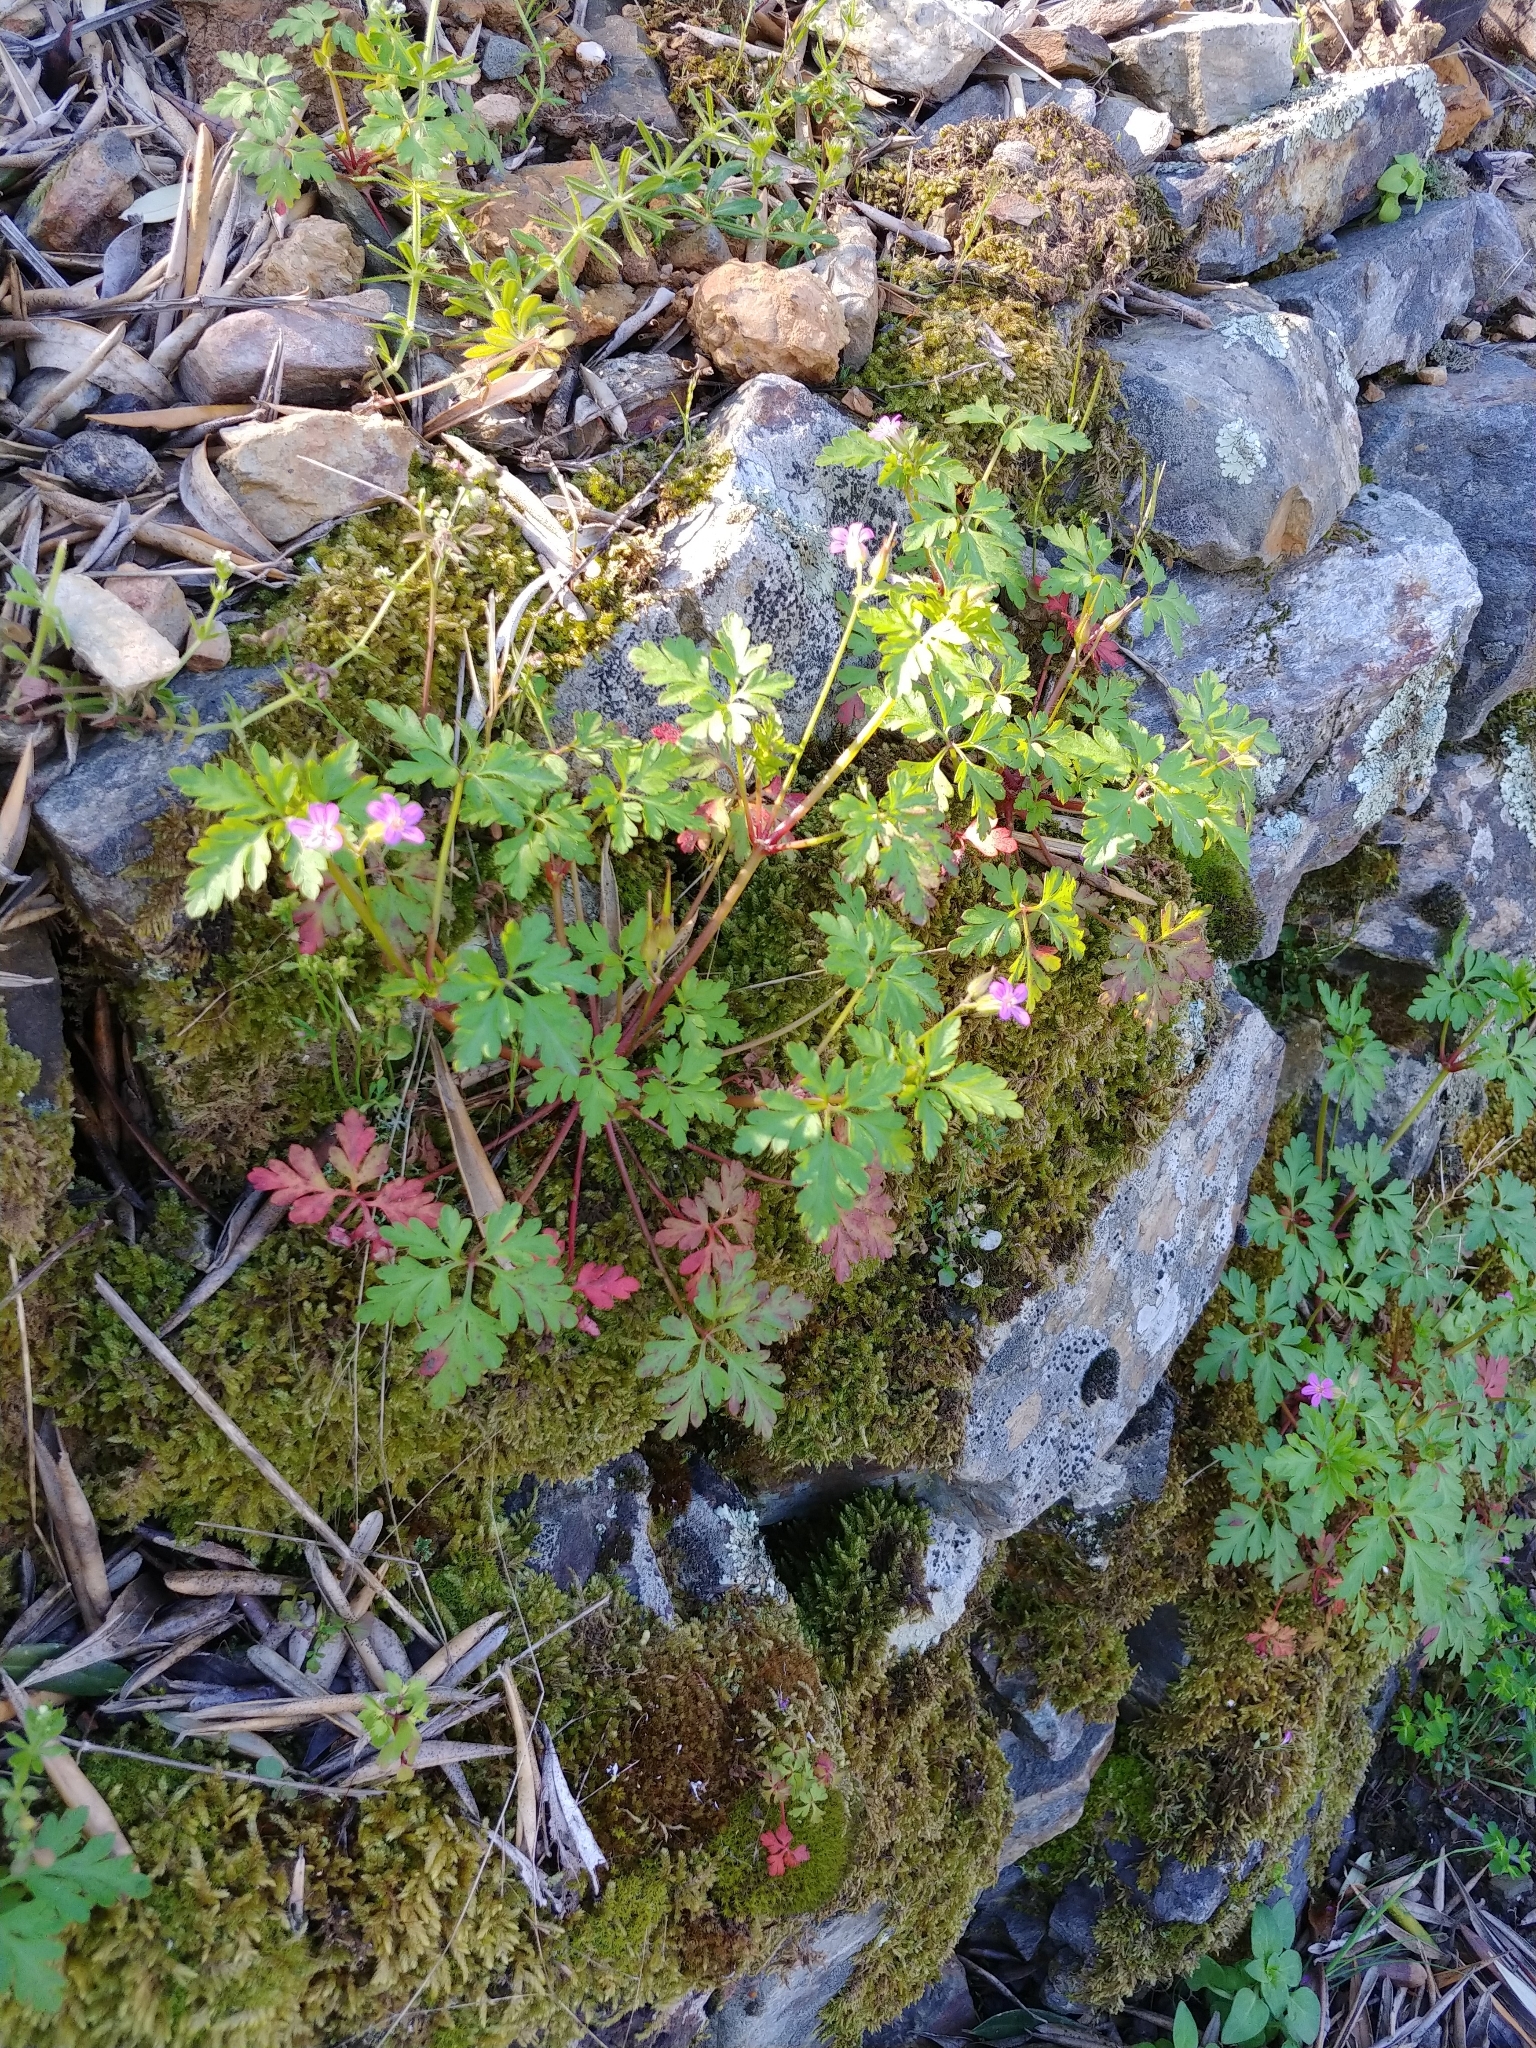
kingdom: Plantae
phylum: Tracheophyta
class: Magnoliopsida
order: Geraniales
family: Geraniaceae
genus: Geranium
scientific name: Geranium purpureum
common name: Little-robin
